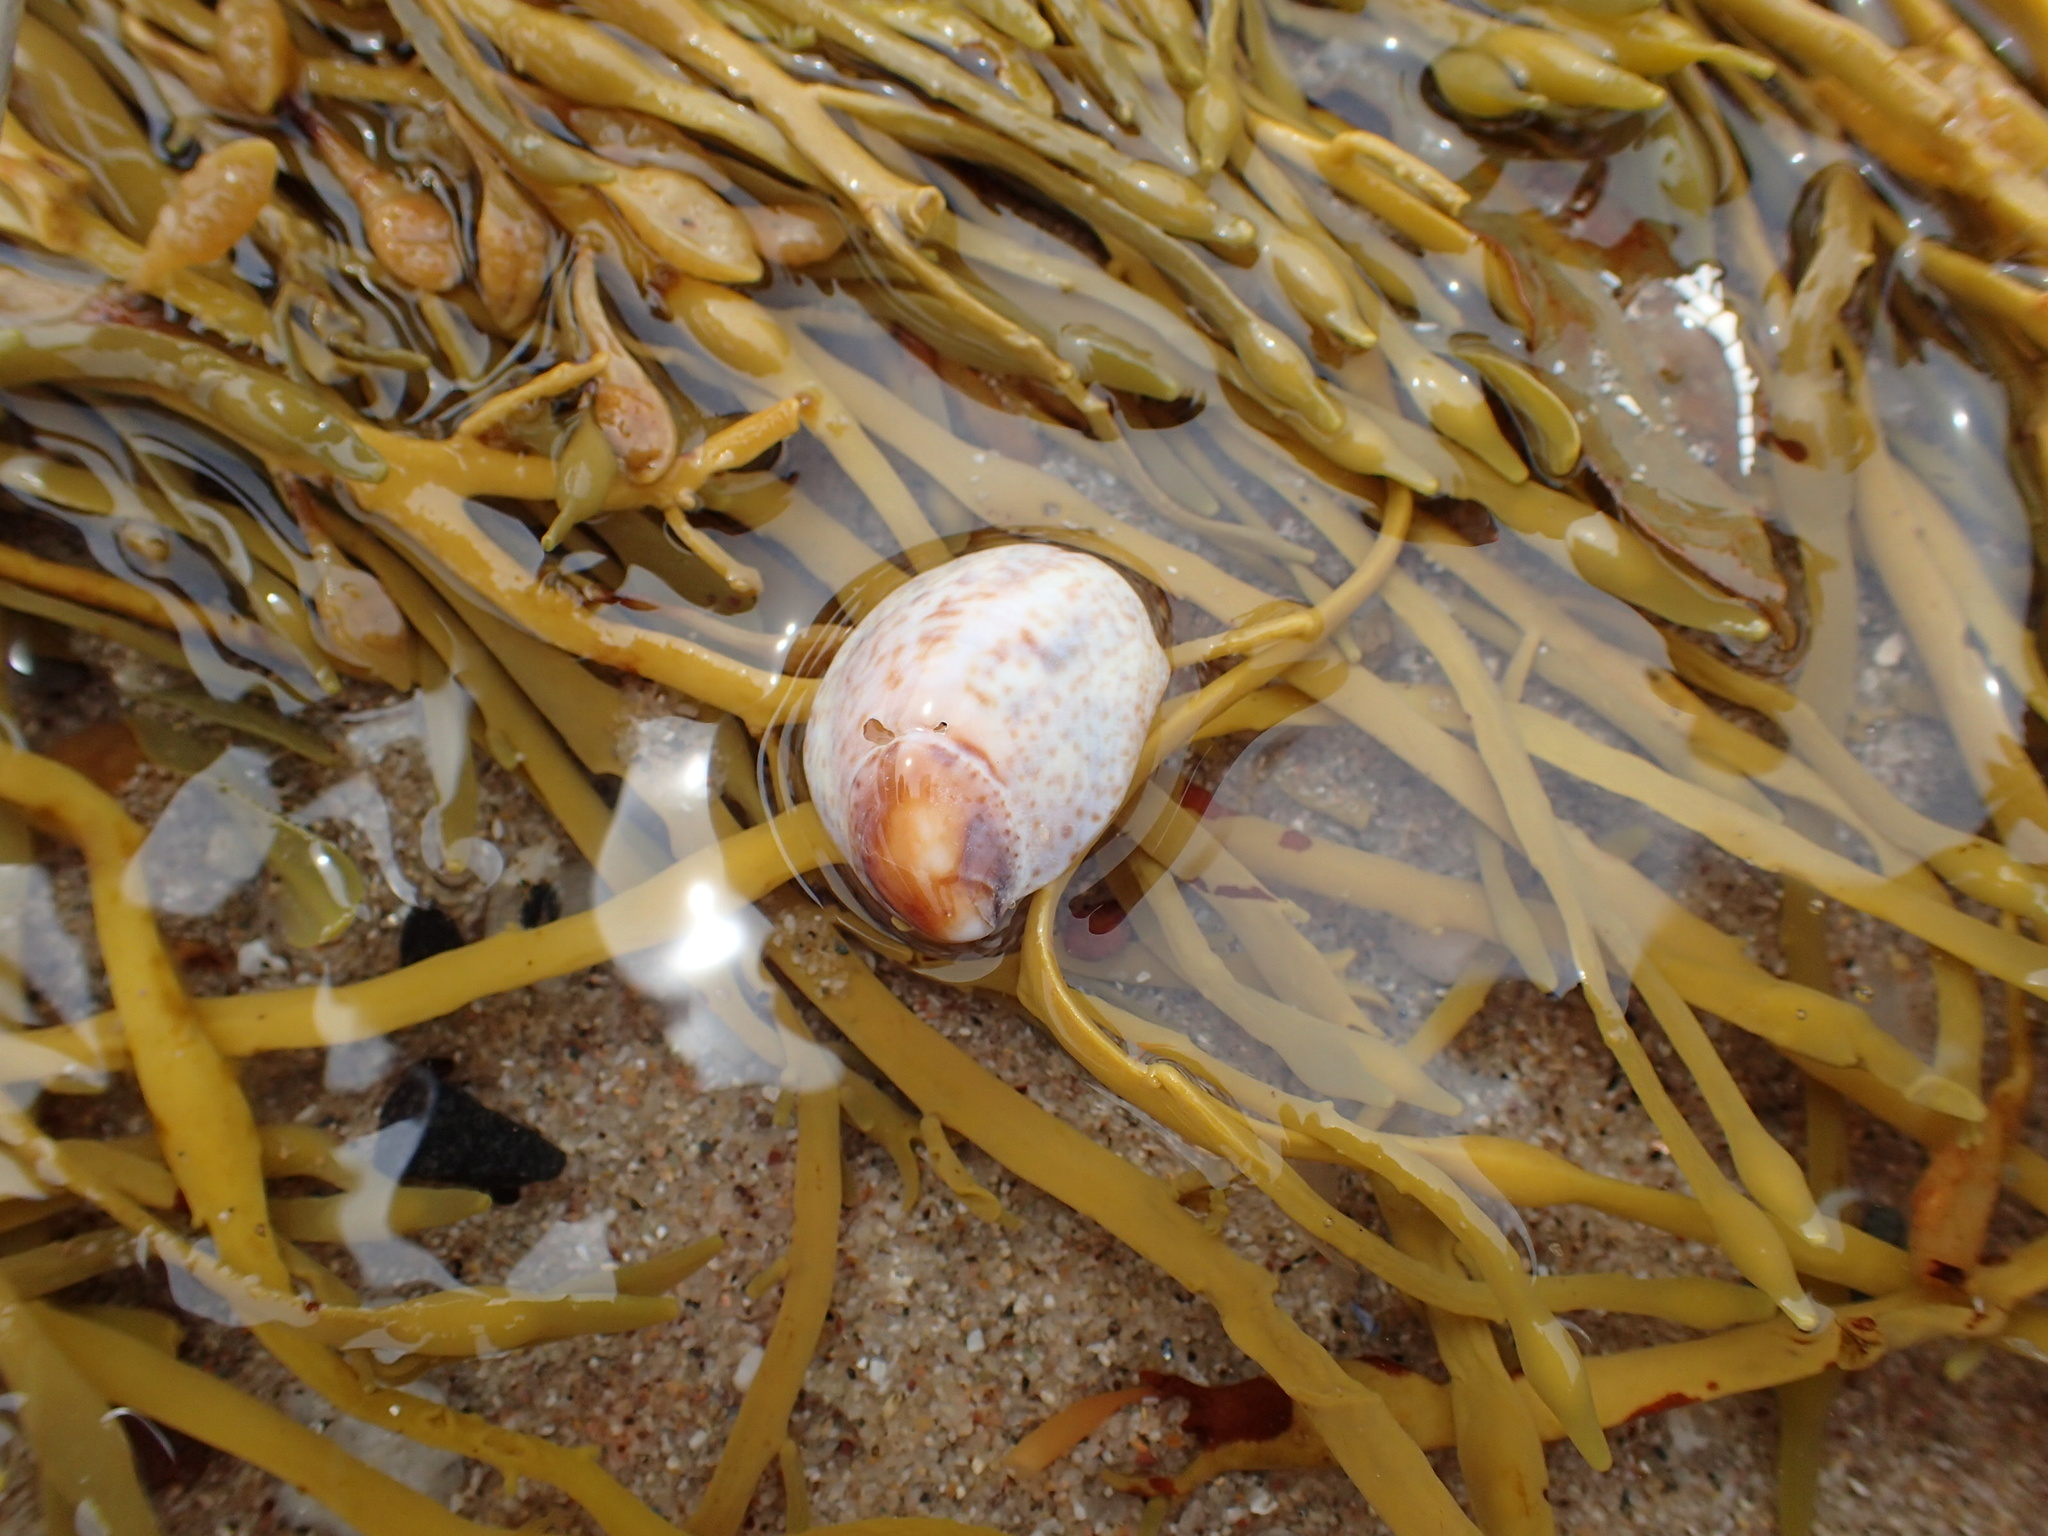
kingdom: Animalia
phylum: Mollusca
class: Gastropoda
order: Littorinimorpha
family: Calyptraeidae
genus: Crepidula
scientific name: Crepidula fornicata
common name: Slipper limpet
